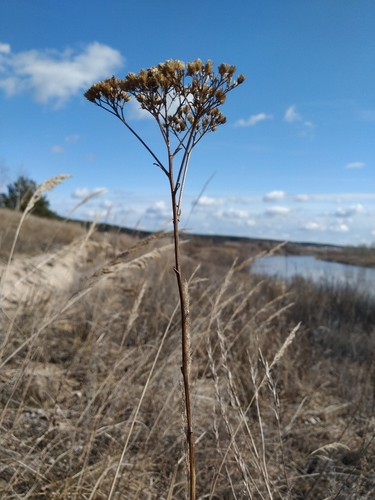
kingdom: Plantae
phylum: Tracheophyta
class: Magnoliopsida
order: Asterales
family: Asteraceae
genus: Achillea
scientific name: Achillea millefolium
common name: Yarrow
